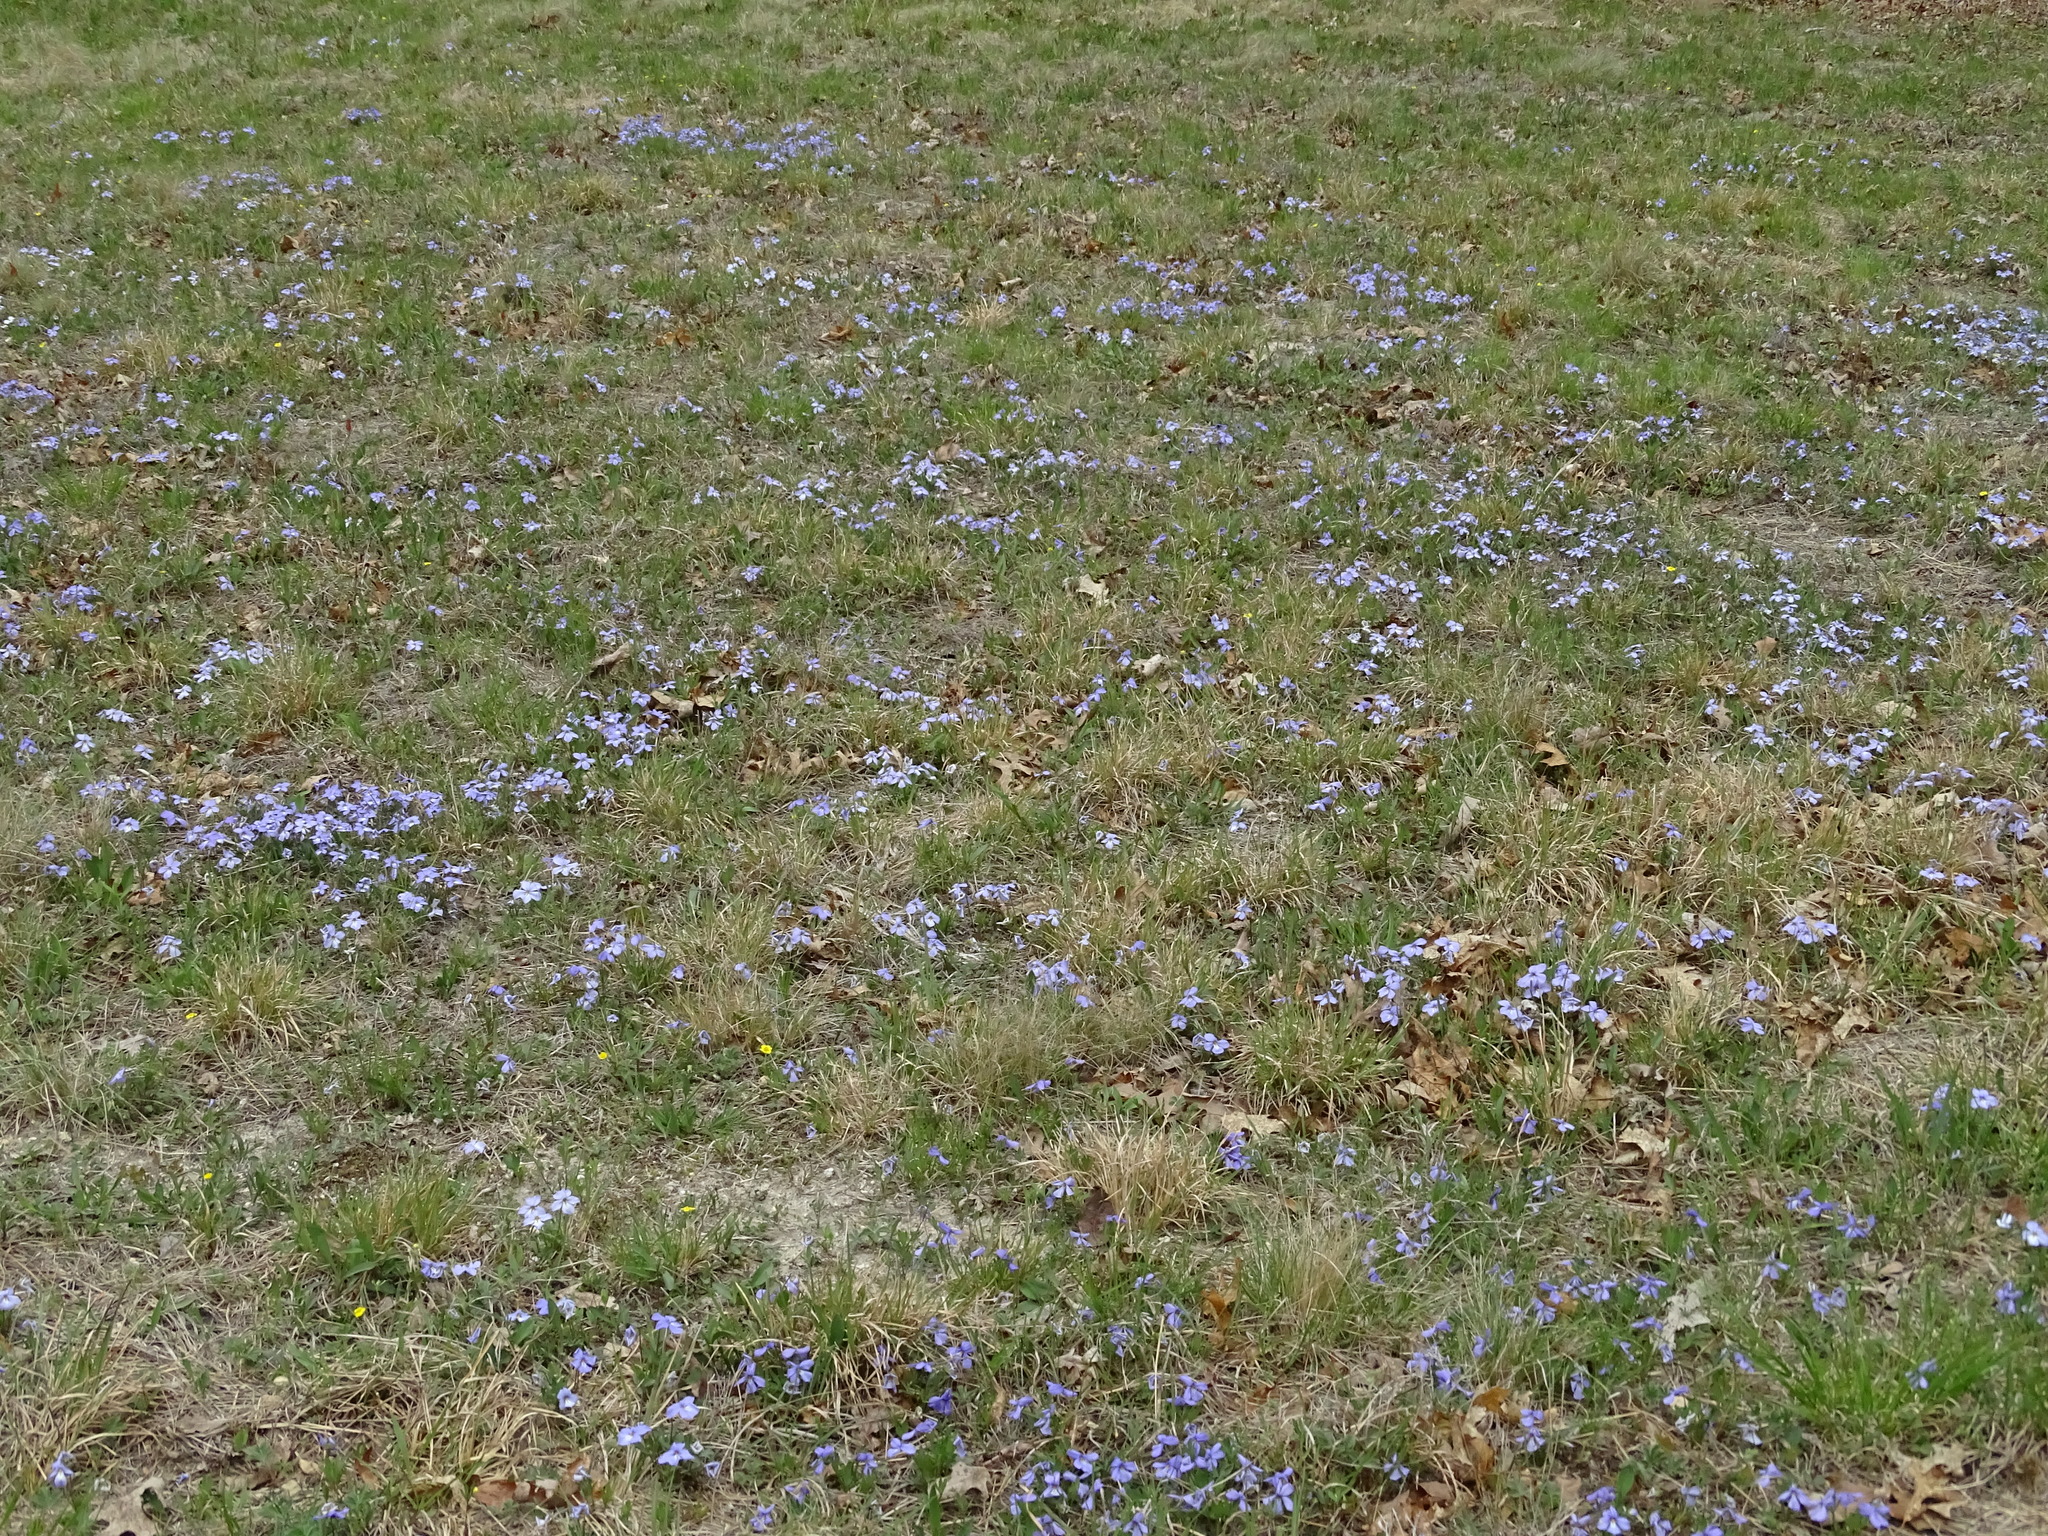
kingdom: Plantae
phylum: Tracheophyta
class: Magnoliopsida
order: Malpighiales
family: Violaceae
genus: Viola
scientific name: Viola pedata
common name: Pansy violet
